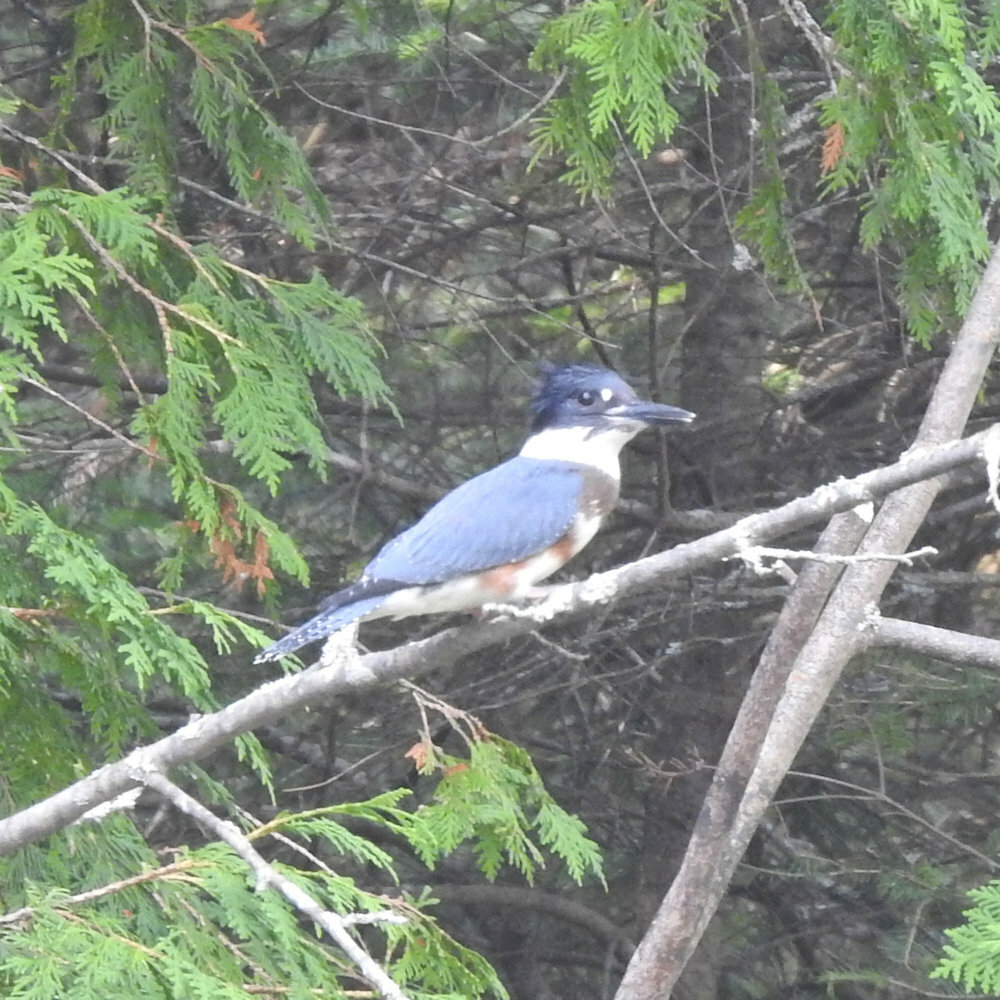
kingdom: Animalia
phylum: Chordata
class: Aves
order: Coraciiformes
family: Alcedinidae
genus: Megaceryle
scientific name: Megaceryle alcyon
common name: Belted kingfisher
